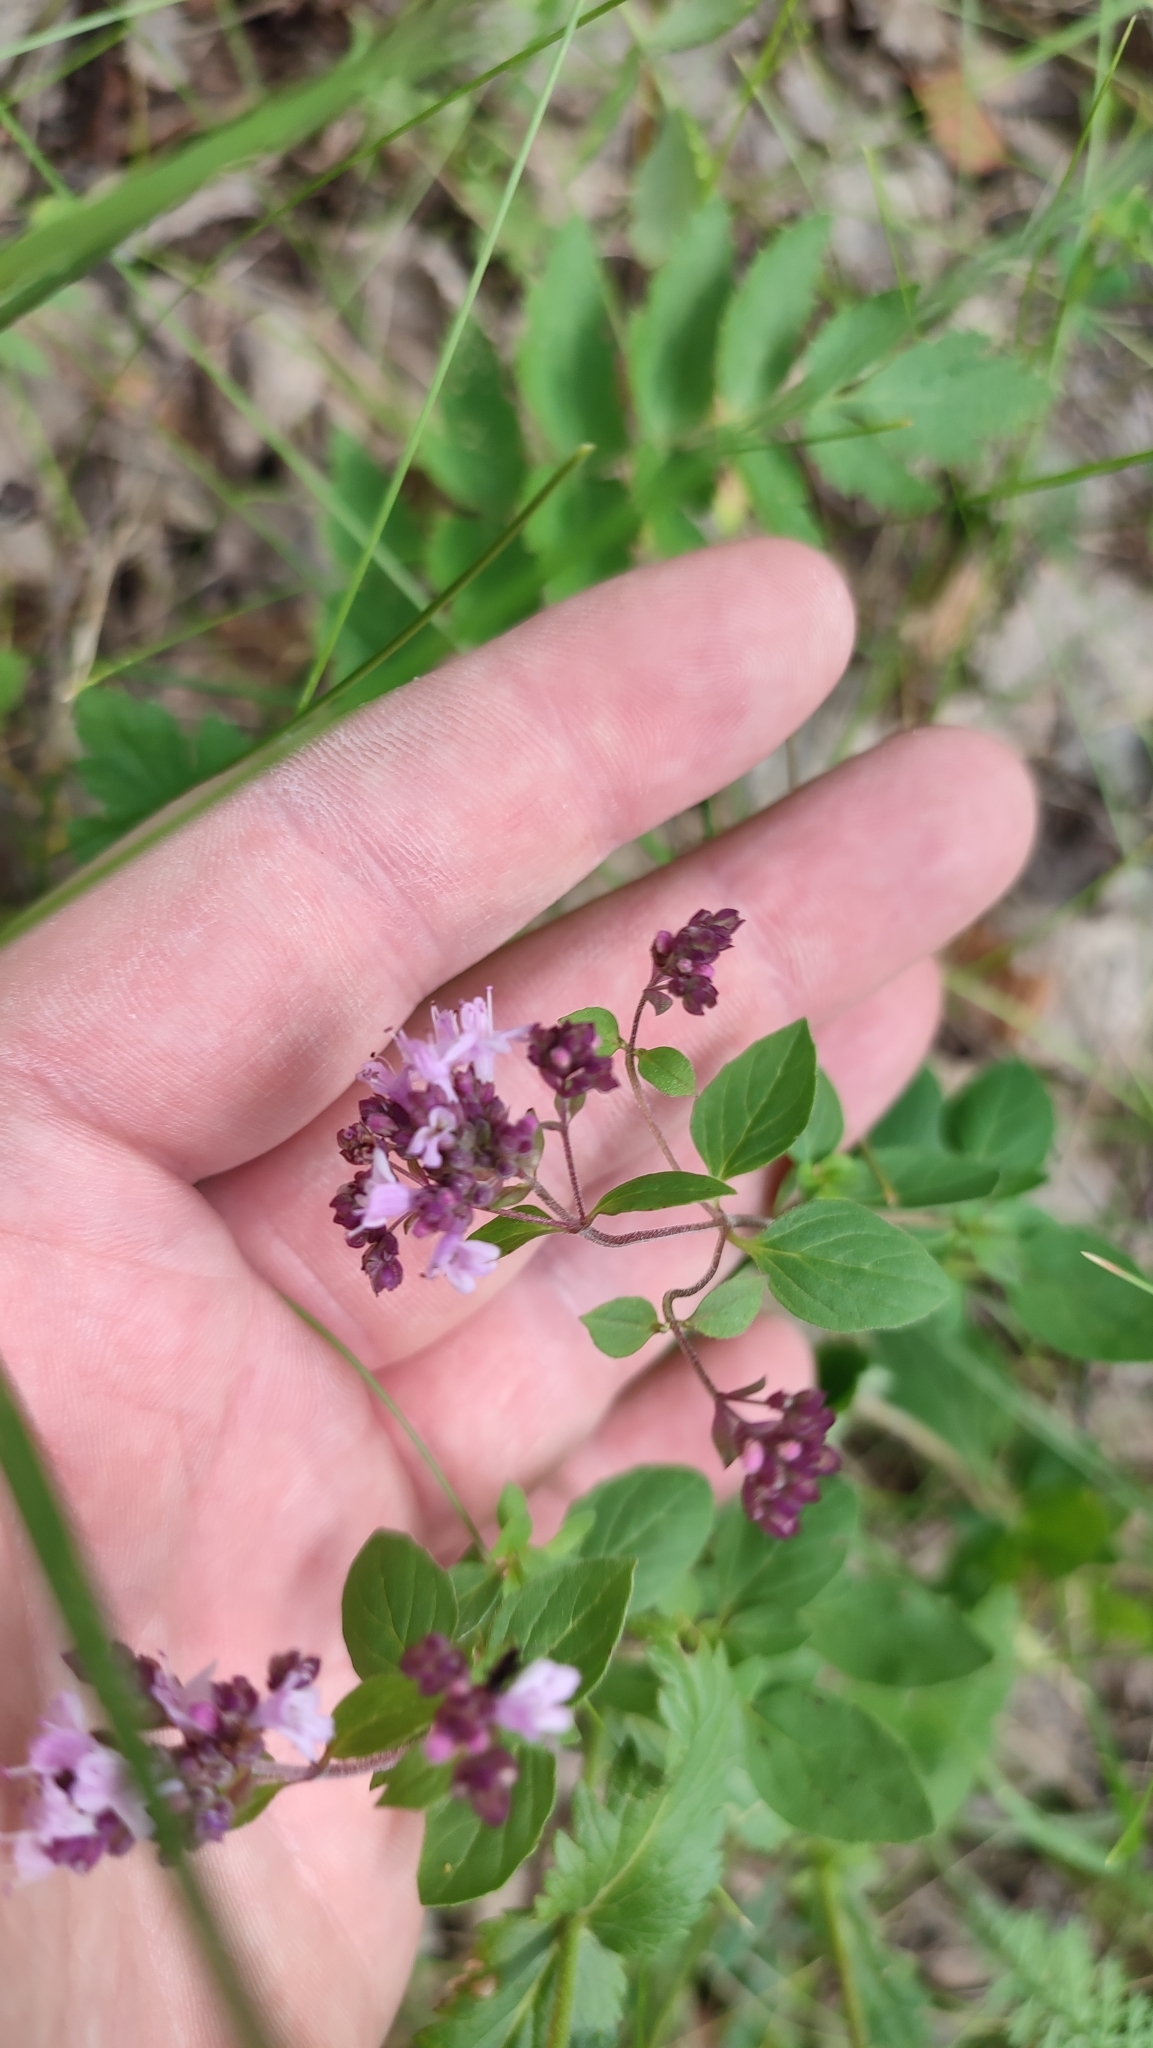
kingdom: Plantae
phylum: Tracheophyta
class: Magnoliopsida
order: Lamiales
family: Lamiaceae
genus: Origanum
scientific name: Origanum vulgare
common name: Wild marjoram
